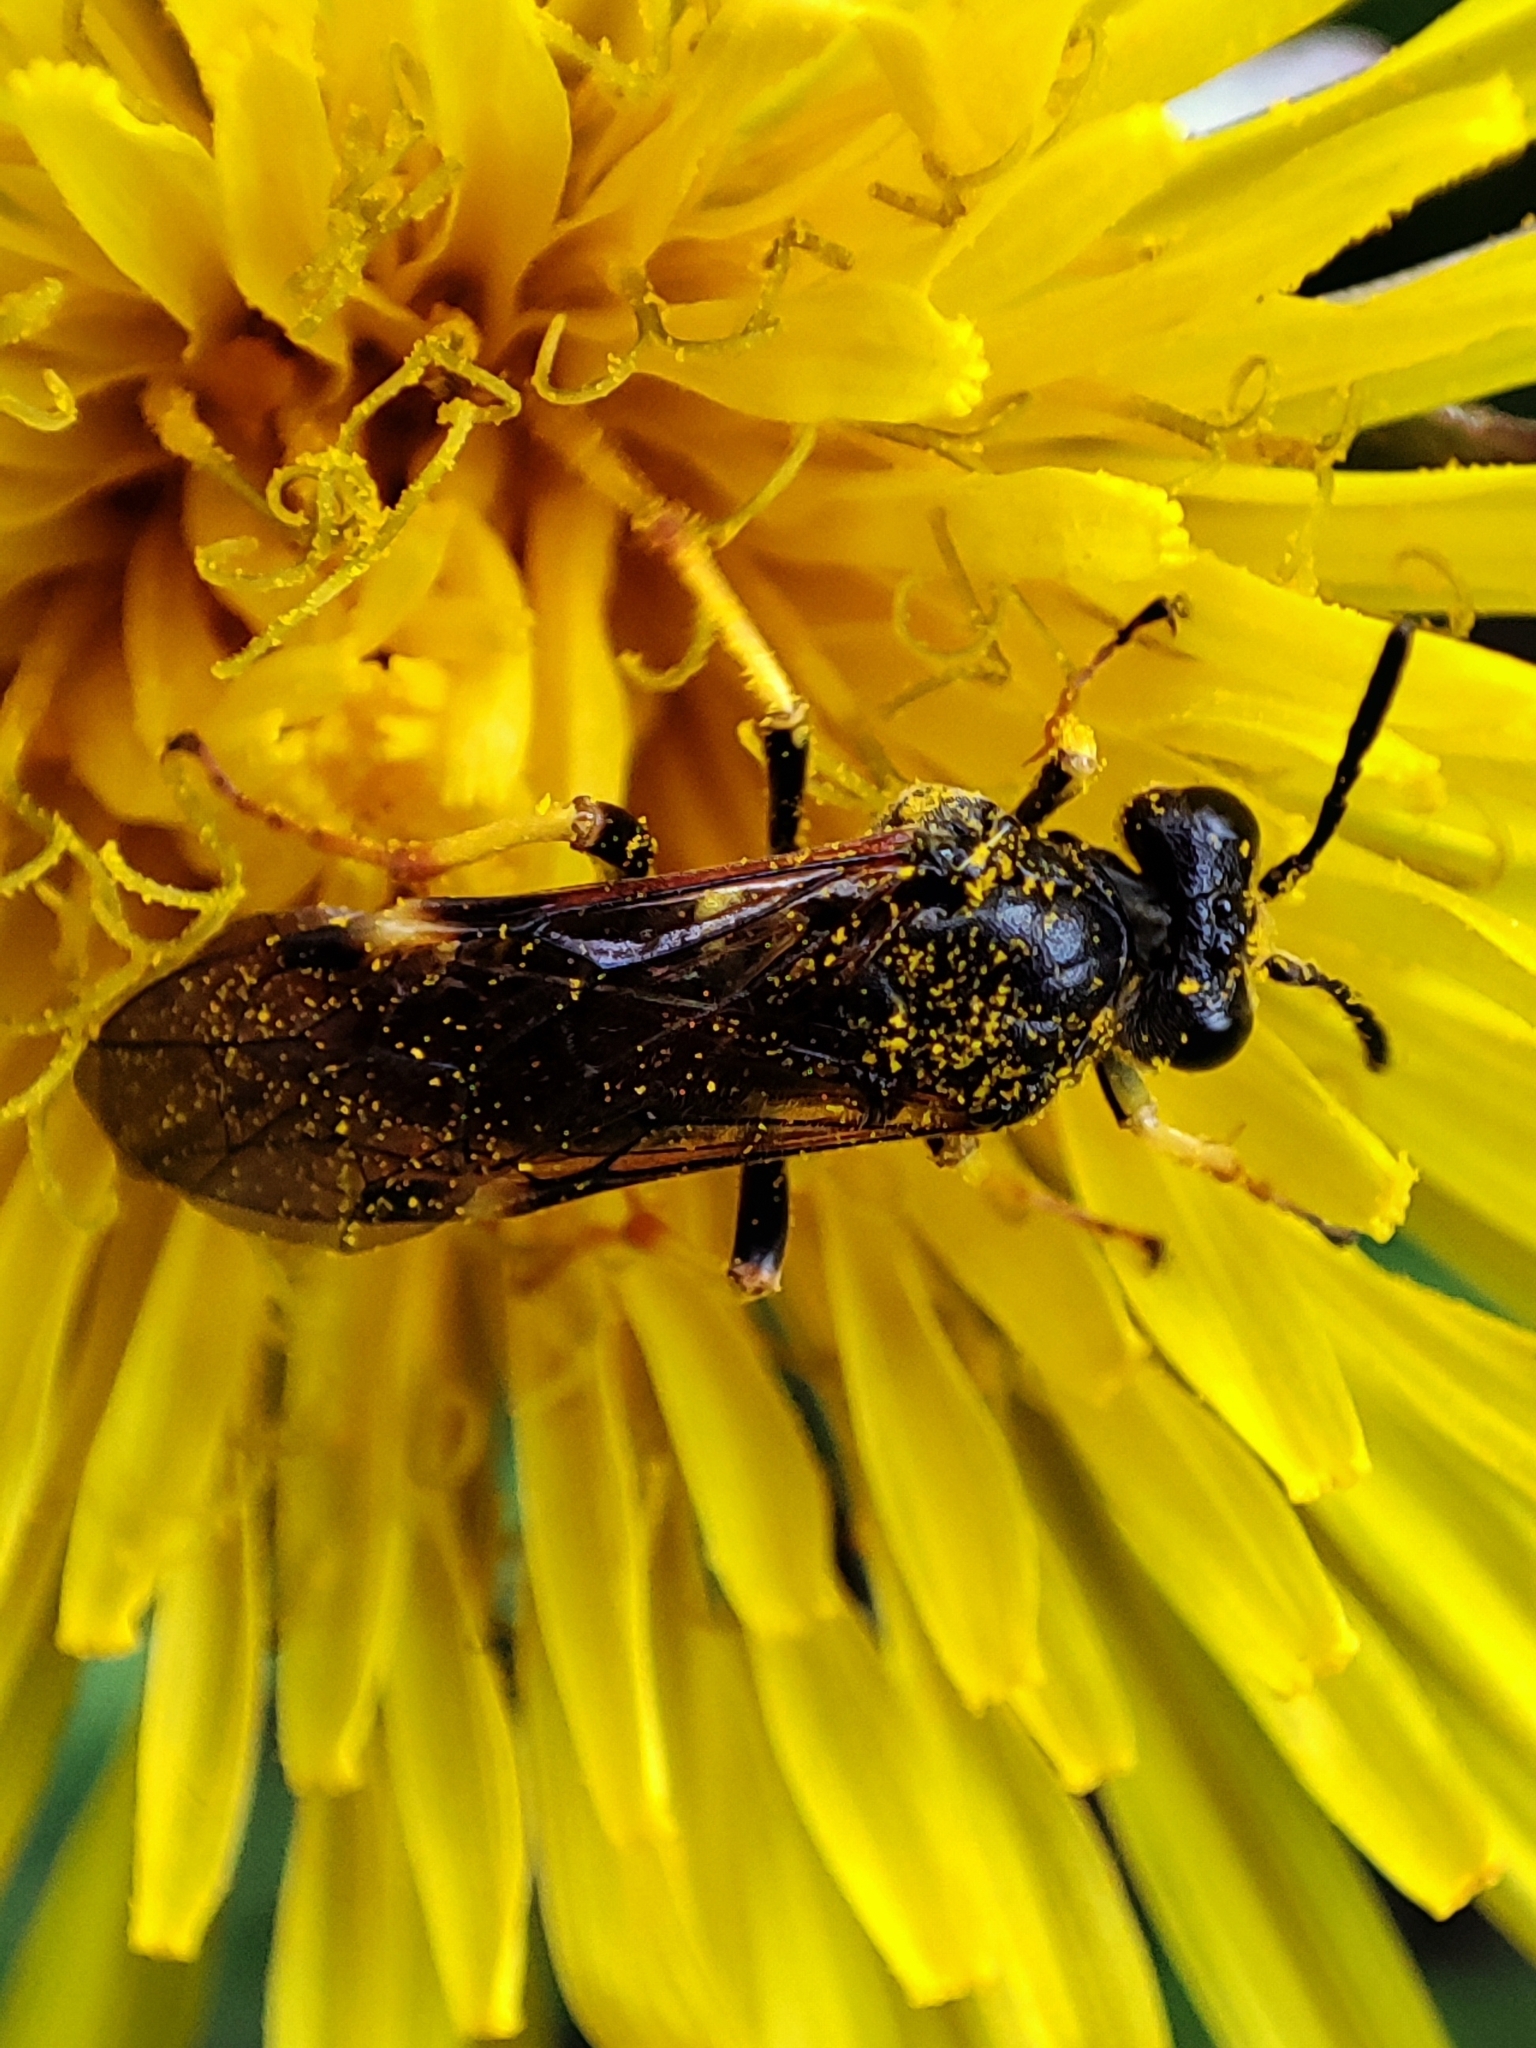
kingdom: Animalia
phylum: Arthropoda
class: Insecta
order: Hymenoptera
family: Tenthredinidae
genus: Tenthredo
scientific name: Tenthredo koehleri
